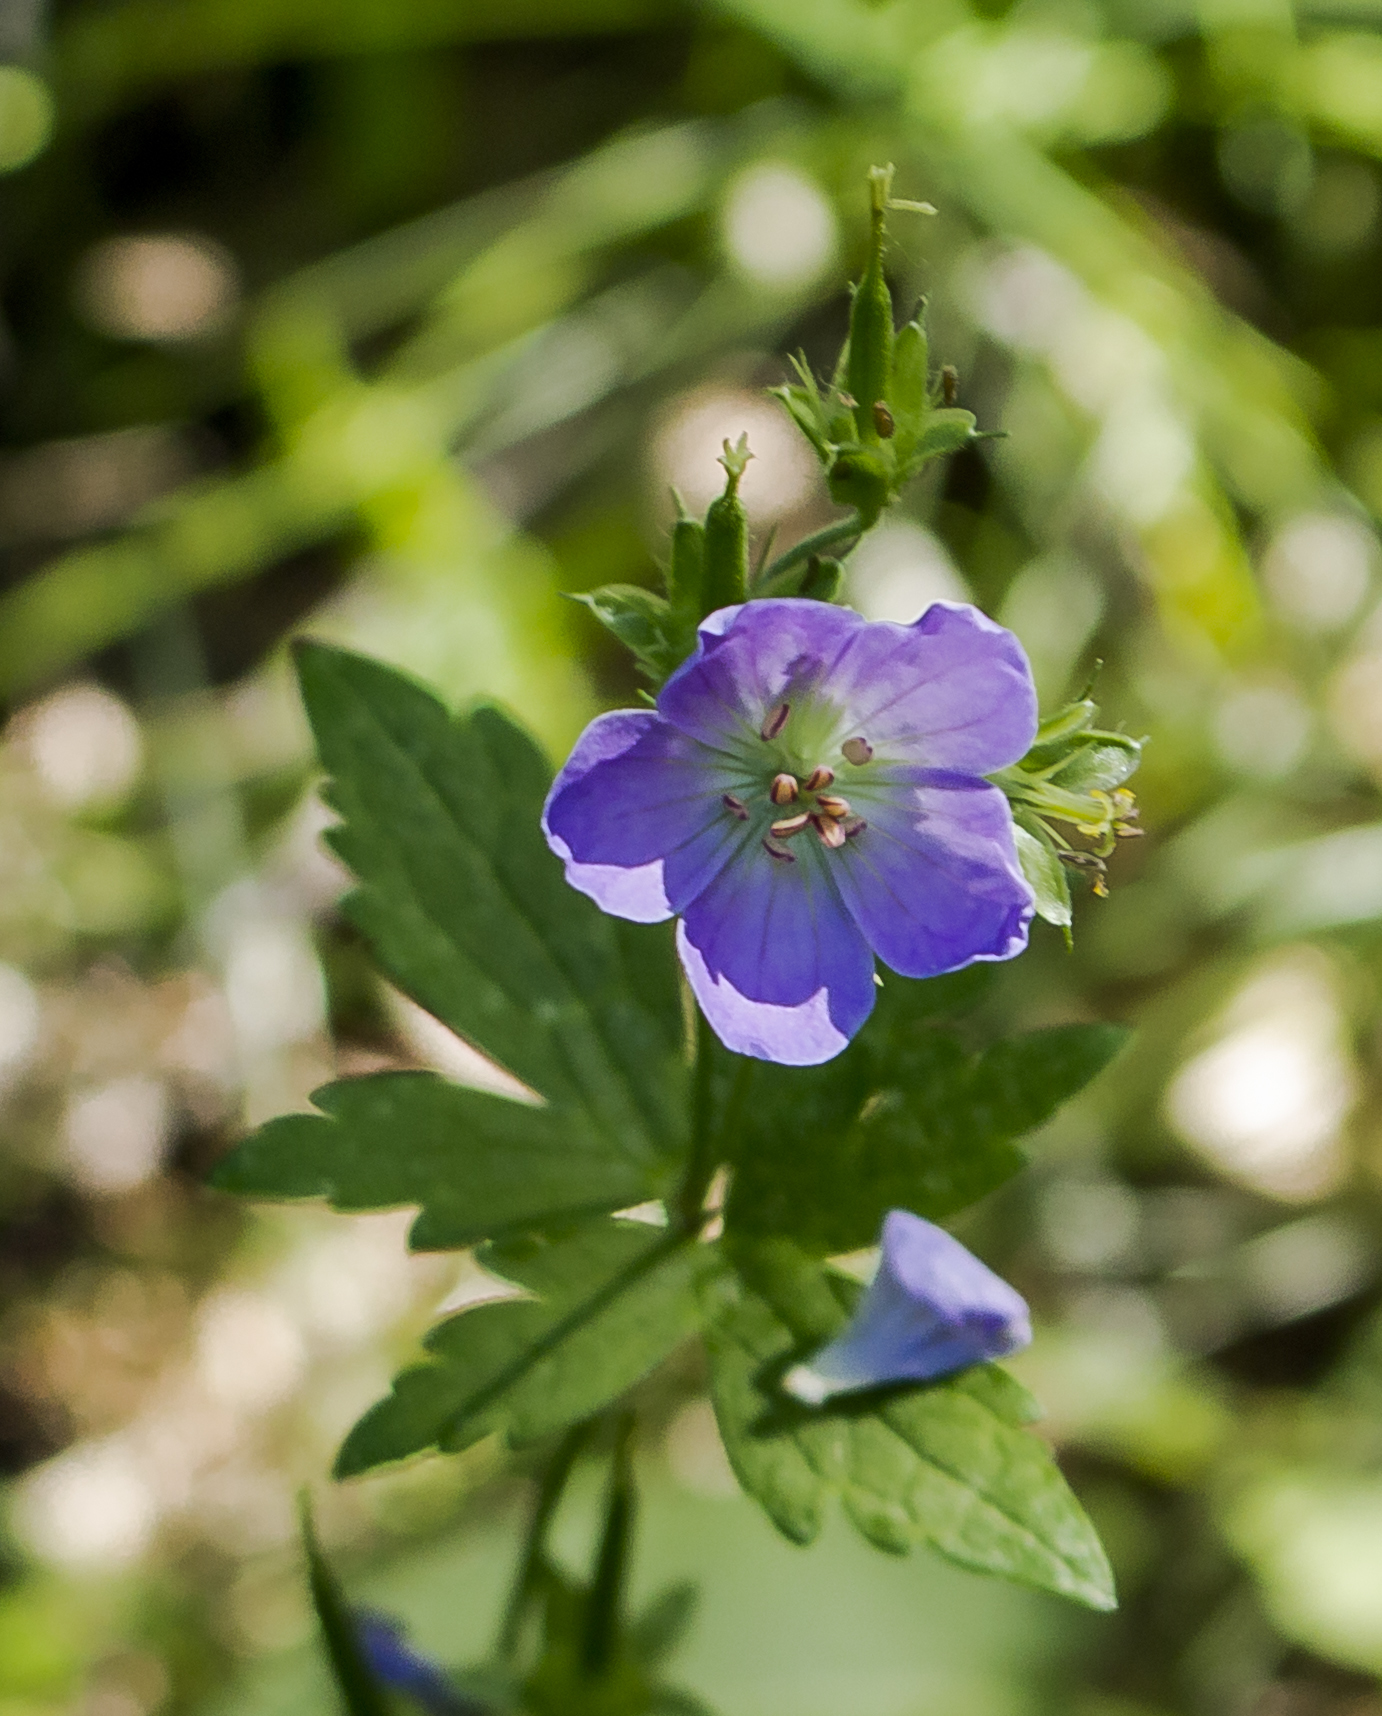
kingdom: Plantae
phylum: Tracheophyta
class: Magnoliopsida
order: Geraniales
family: Geraniaceae
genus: Geranium
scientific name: Geranium maculatum
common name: Spotted geranium
